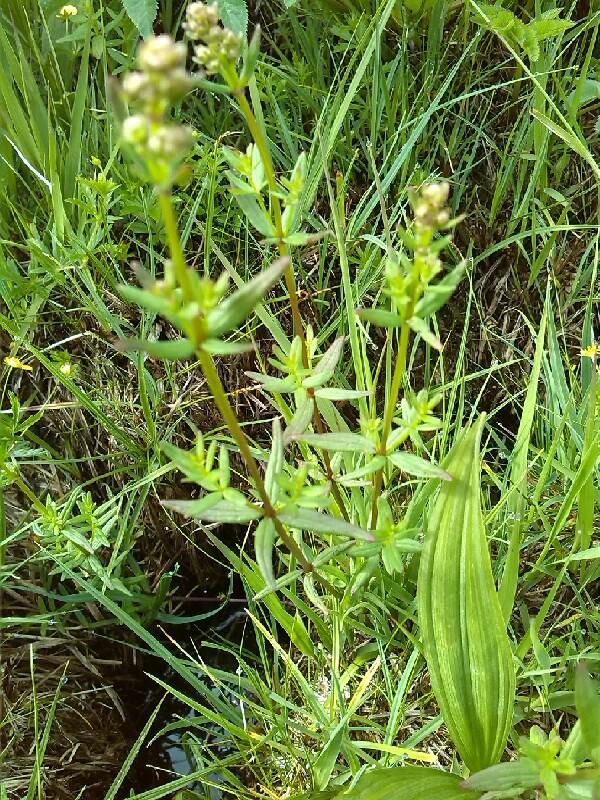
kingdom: Plantae
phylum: Tracheophyta
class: Magnoliopsida
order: Gentianales
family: Rubiaceae
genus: Galium
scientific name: Galium boreale
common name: Northern bedstraw
